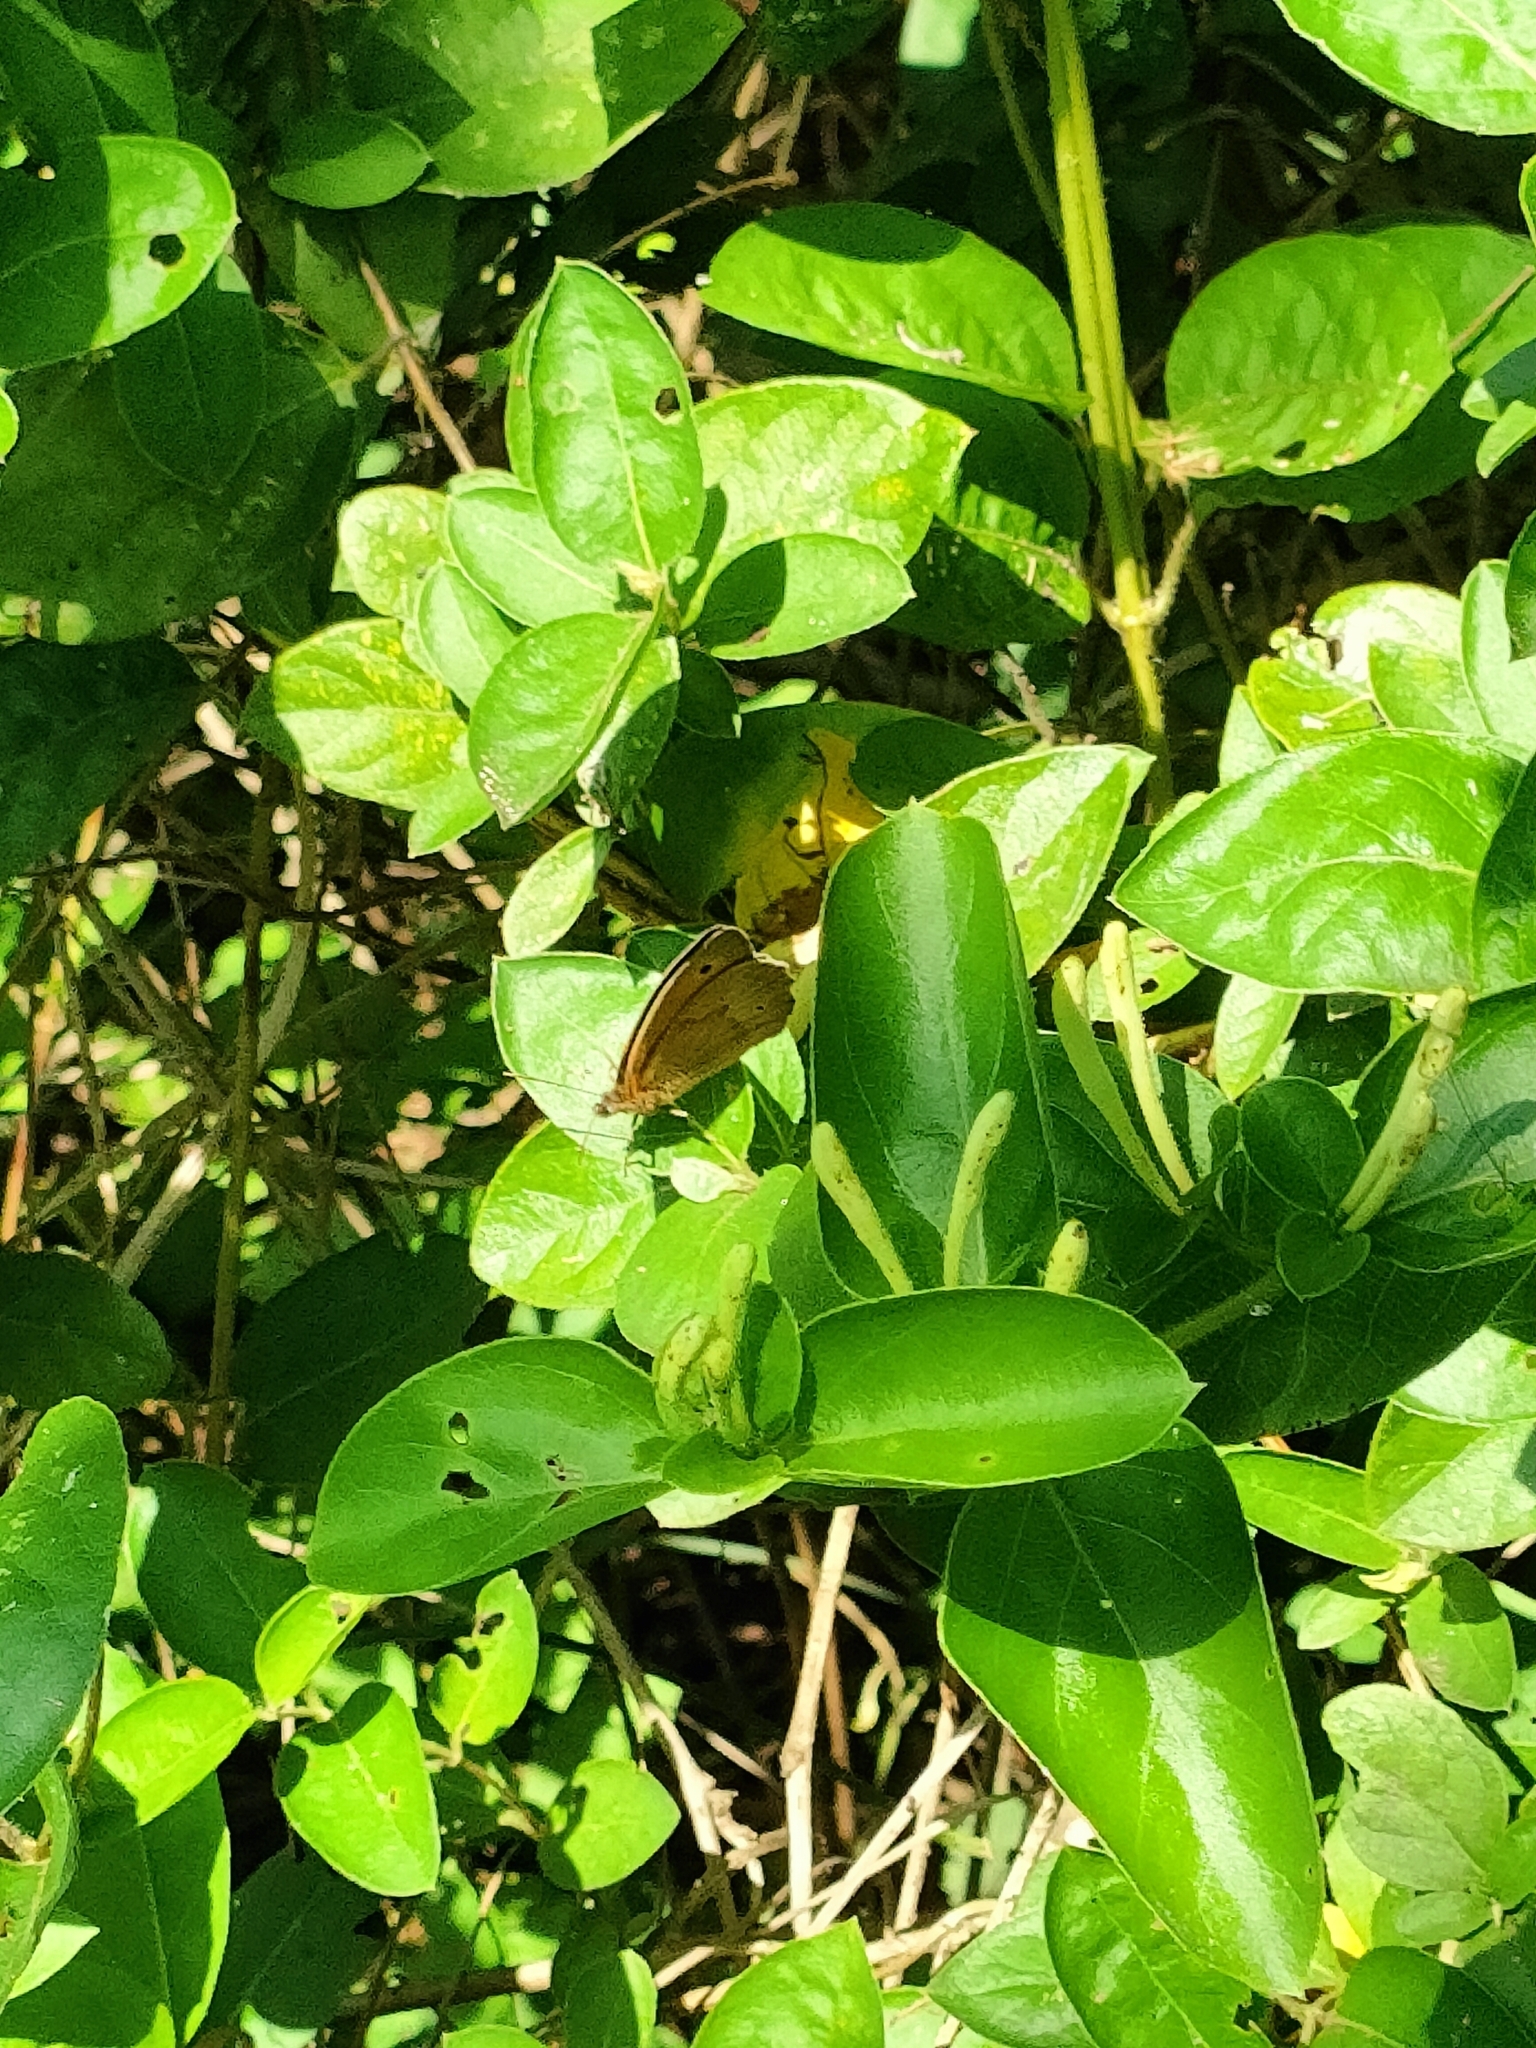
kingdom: Animalia
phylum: Arthropoda
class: Insecta
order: Lepidoptera
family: Nymphalidae
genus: Maniola
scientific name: Maniola jurtina
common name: Meadow brown
